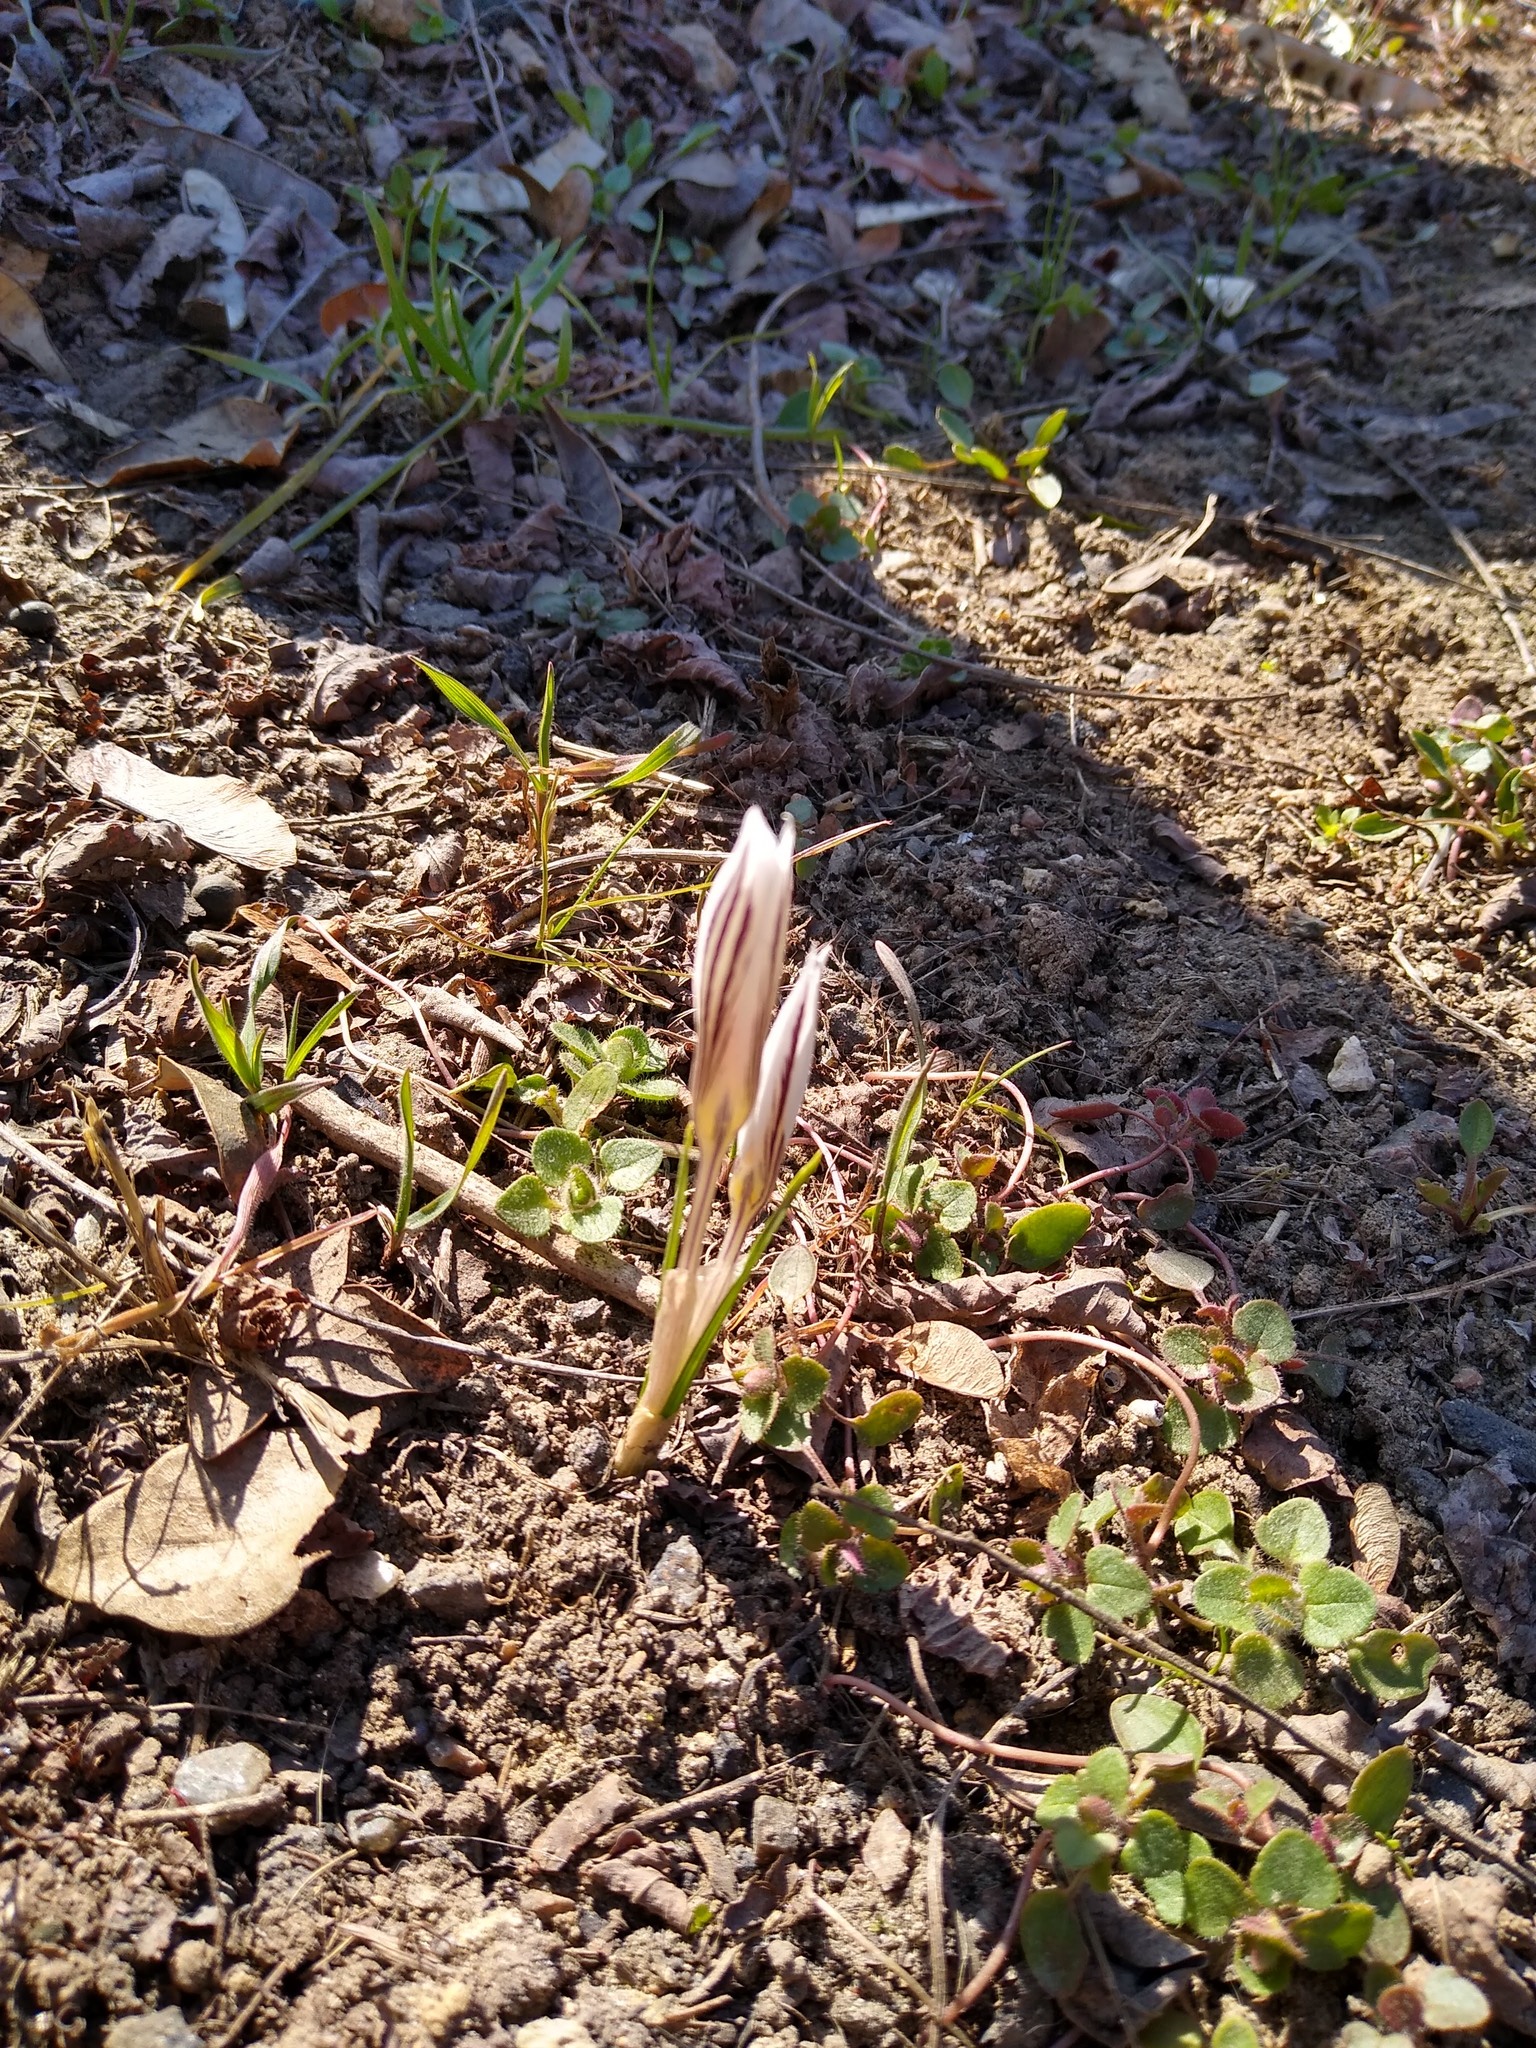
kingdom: Plantae
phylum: Tracheophyta
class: Liliopsida
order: Asparagales
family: Iridaceae
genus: Crocus
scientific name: Crocus reticulatus
